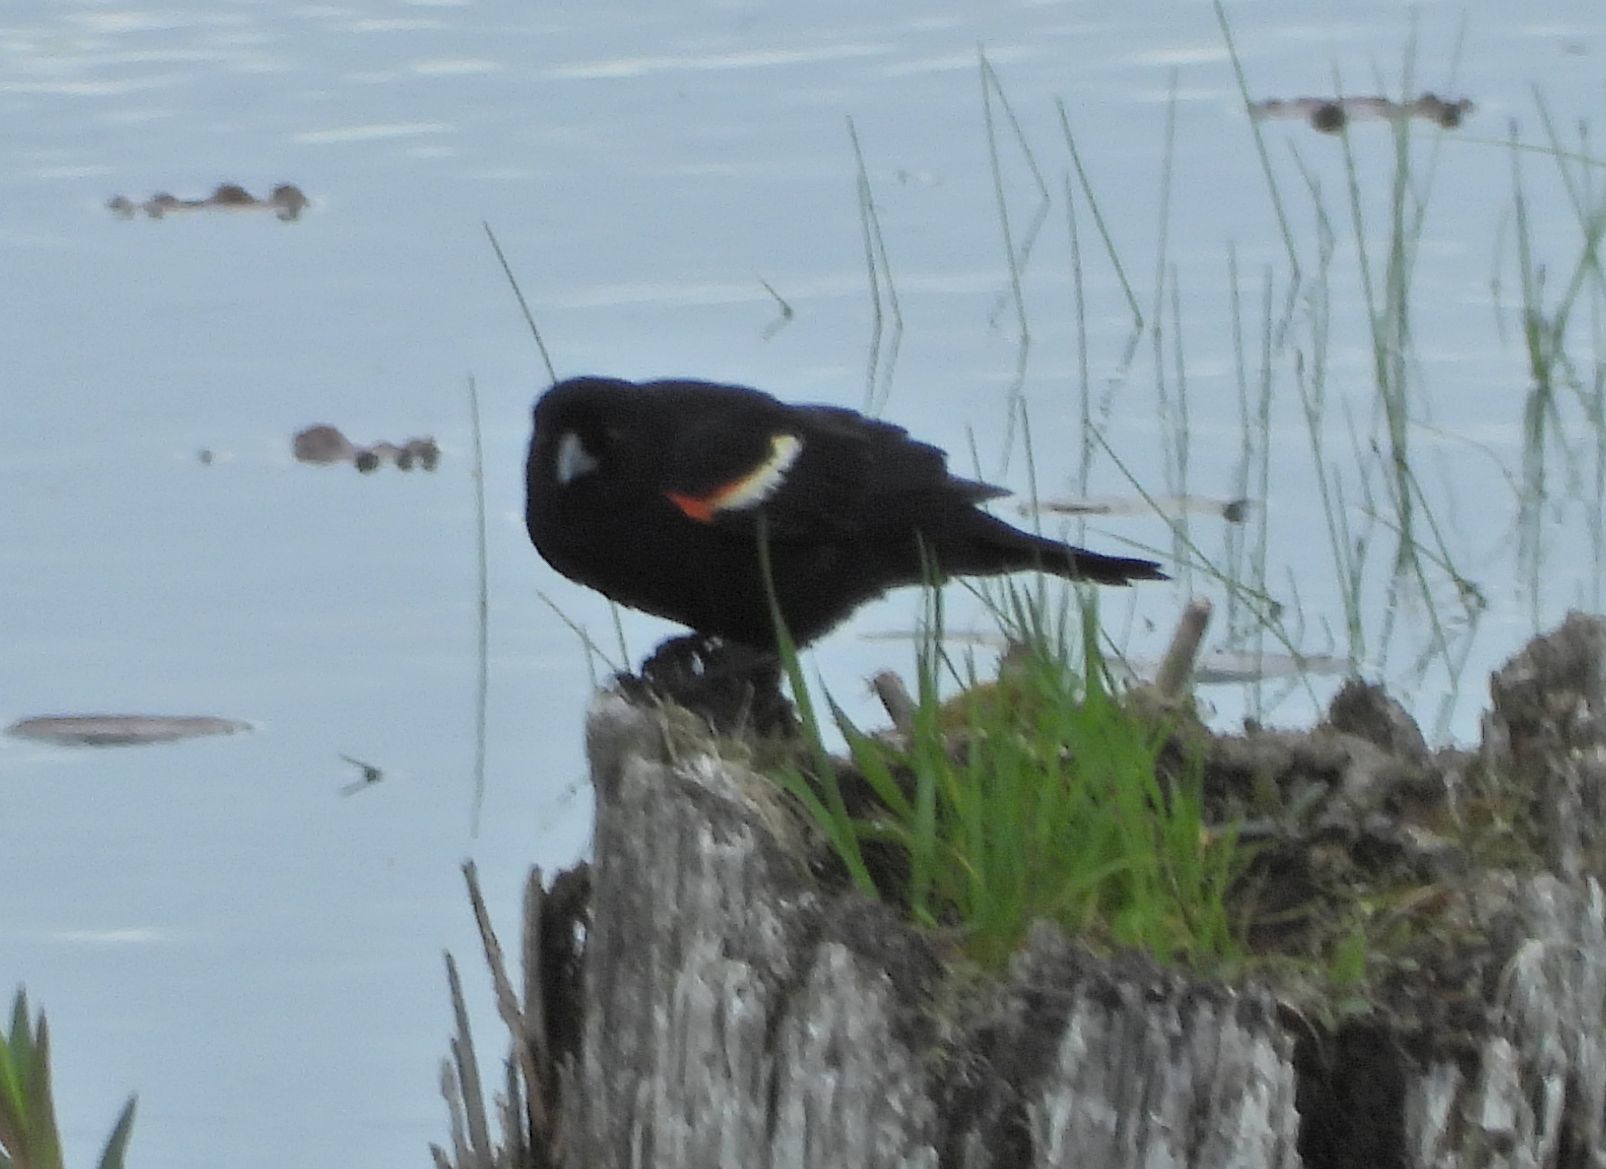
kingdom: Animalia
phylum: Chordata
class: Aves
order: Passeriformes
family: Icteridae
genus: Agelaius
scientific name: Agelaius phoeniceus
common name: Red-winged blackbird
